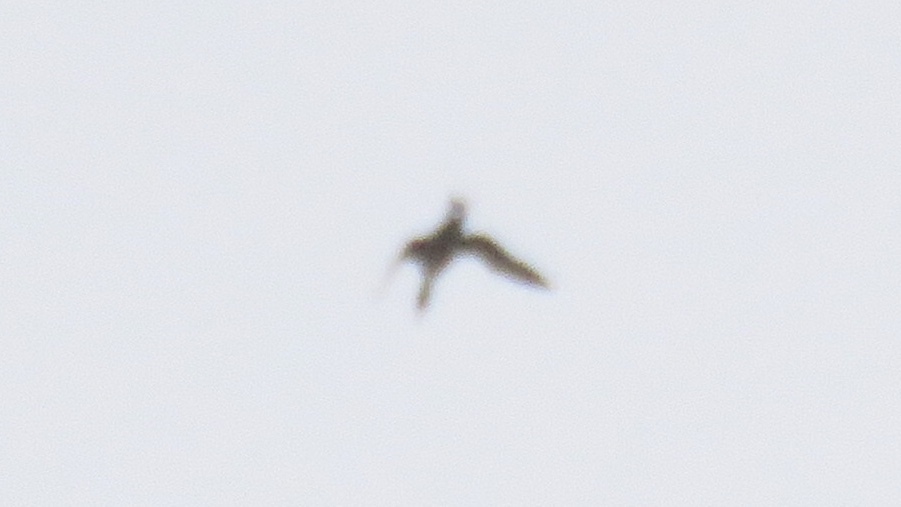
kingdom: Animalia
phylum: Chordata
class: Aves
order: Gaviiformes
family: Gaviidae
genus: Gavia
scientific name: Gavia immer
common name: Common loon
